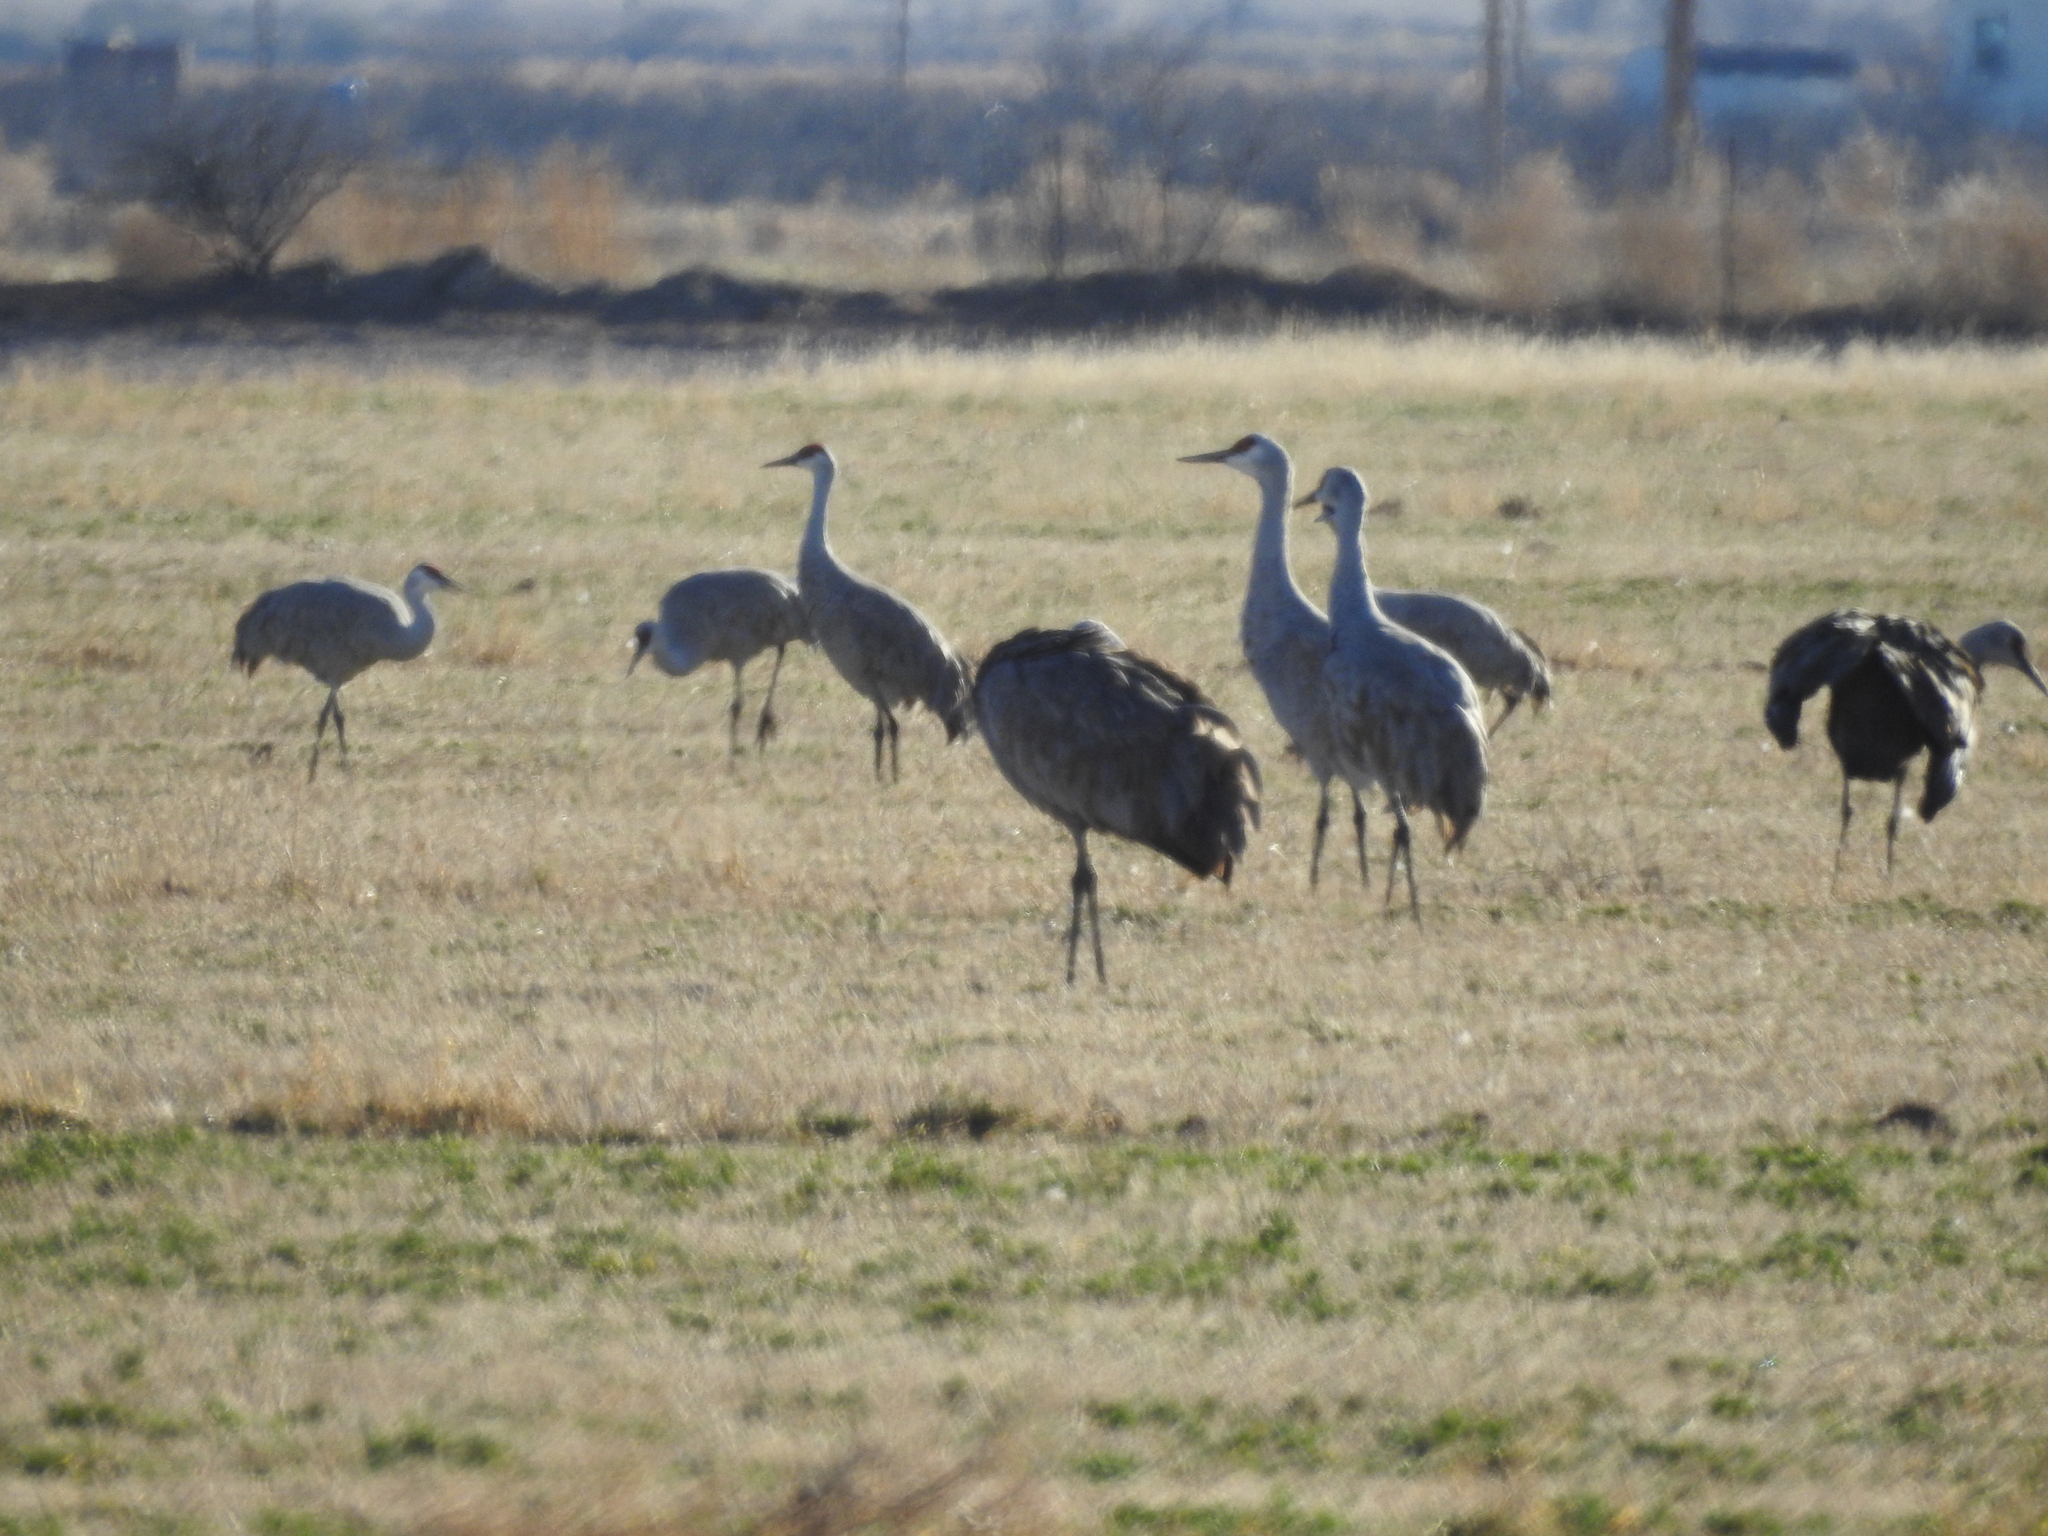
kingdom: Animalia
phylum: Chordata
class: Aves
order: Gruiformes
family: Gruidae
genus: Grus
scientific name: Grus canadensis
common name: Sandhill crane
